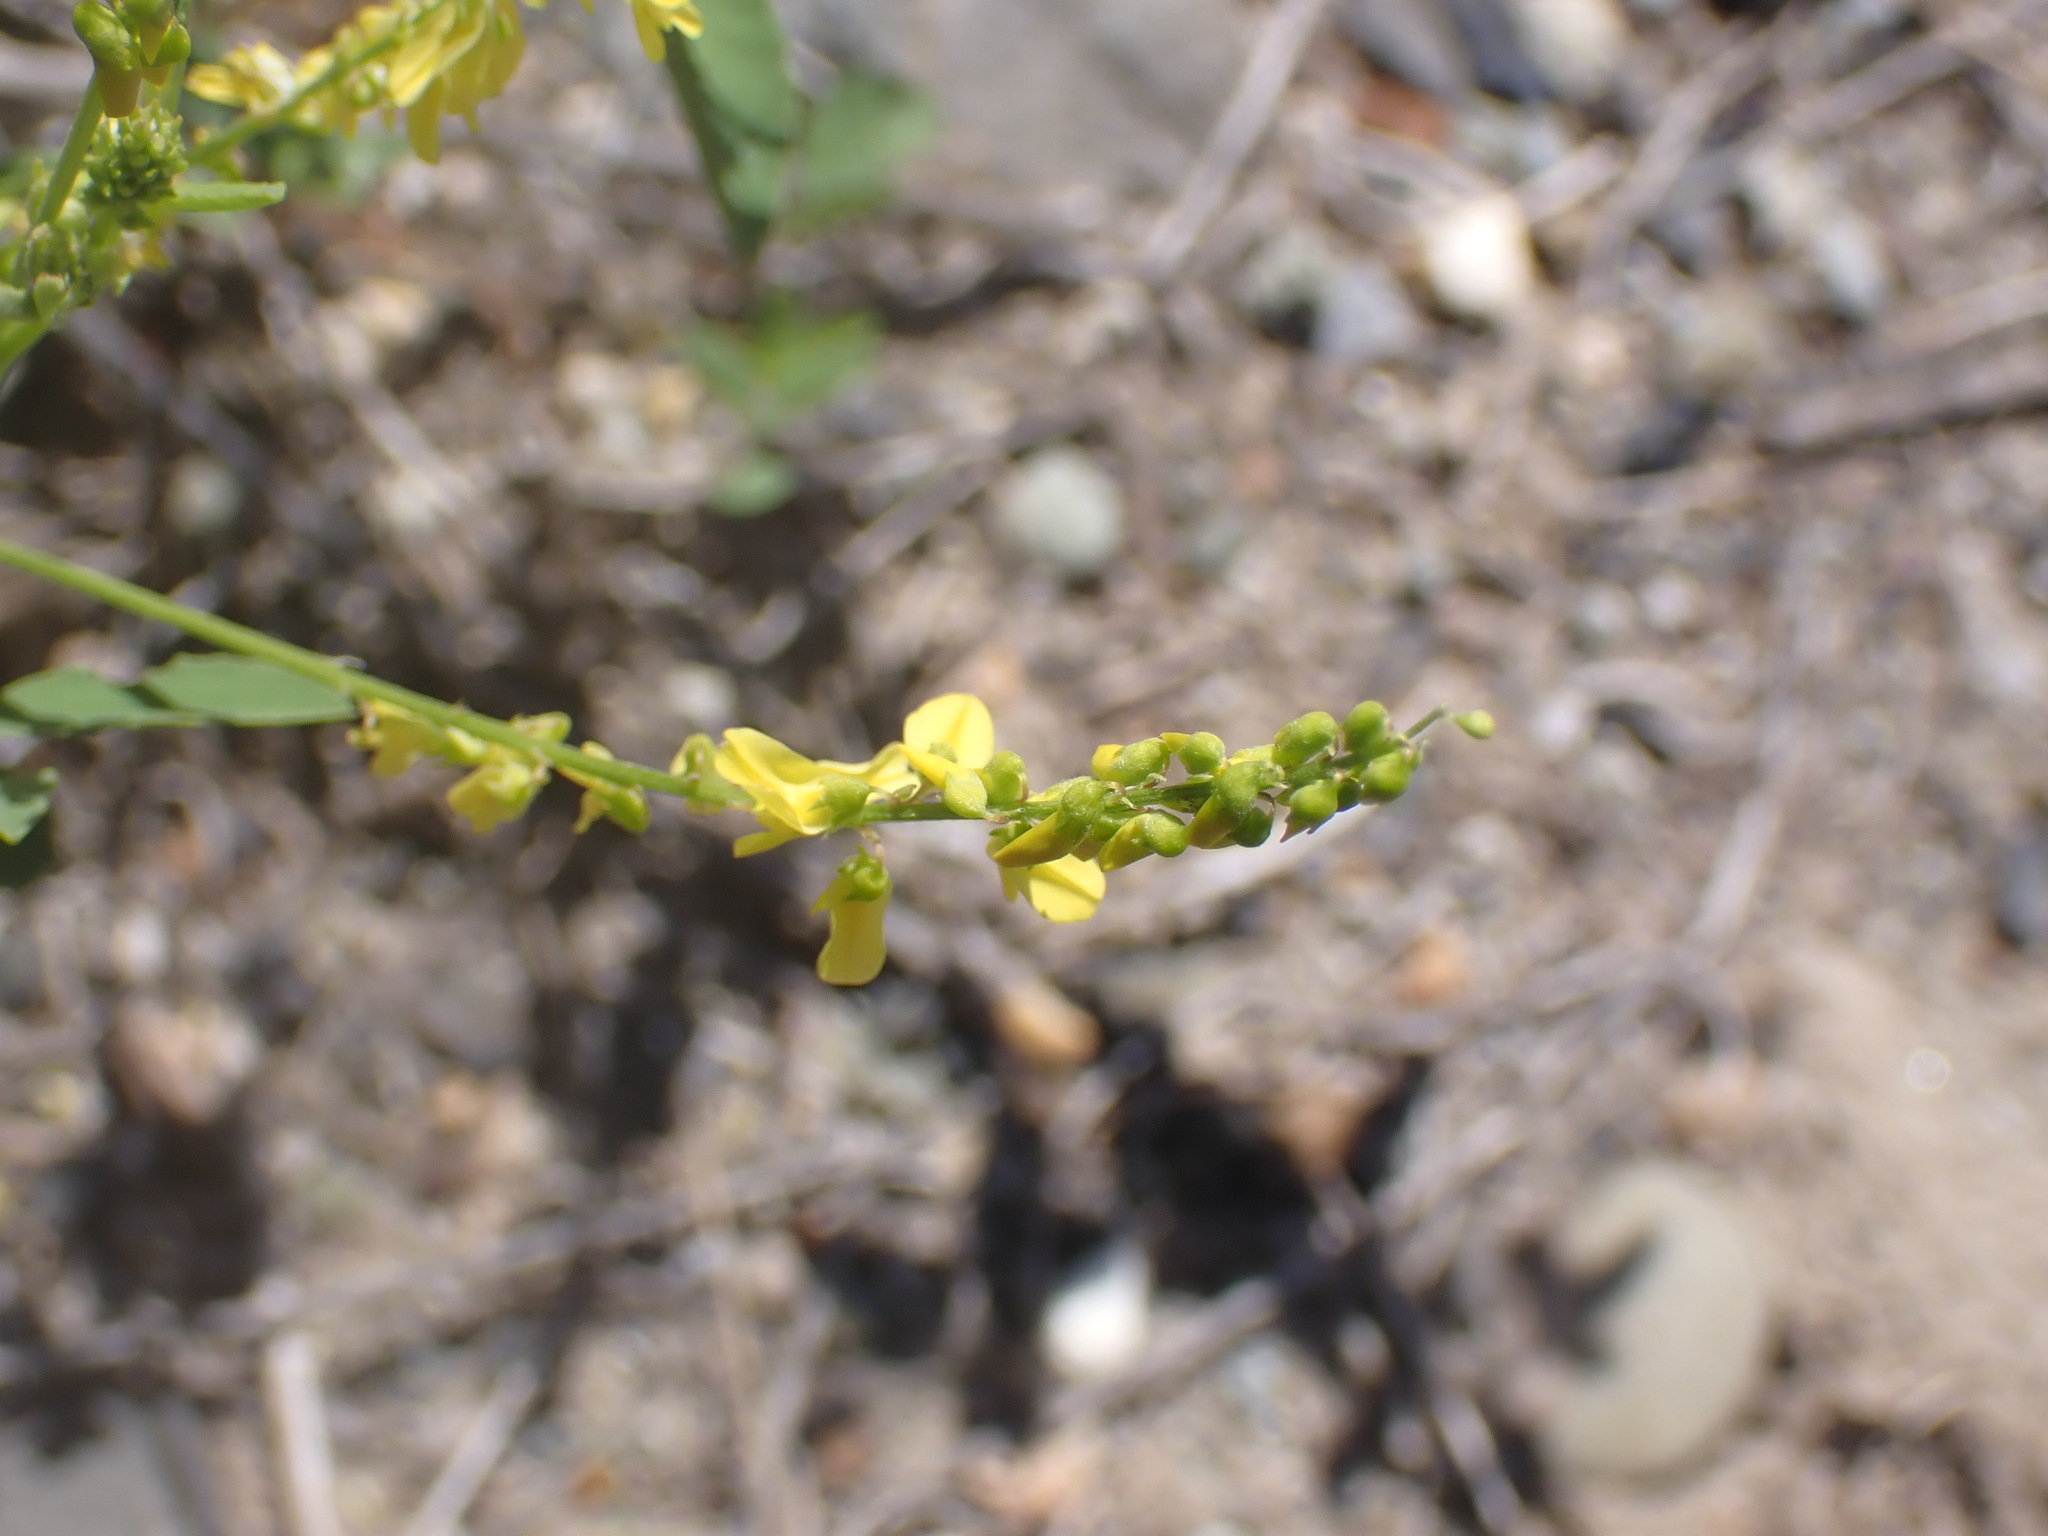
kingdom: Plantae
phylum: Tracheophyta
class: Magnoliopsida
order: Fabales
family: Fabaceae
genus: Melilotus
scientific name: Melilotus officinalis
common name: Sweetclover
